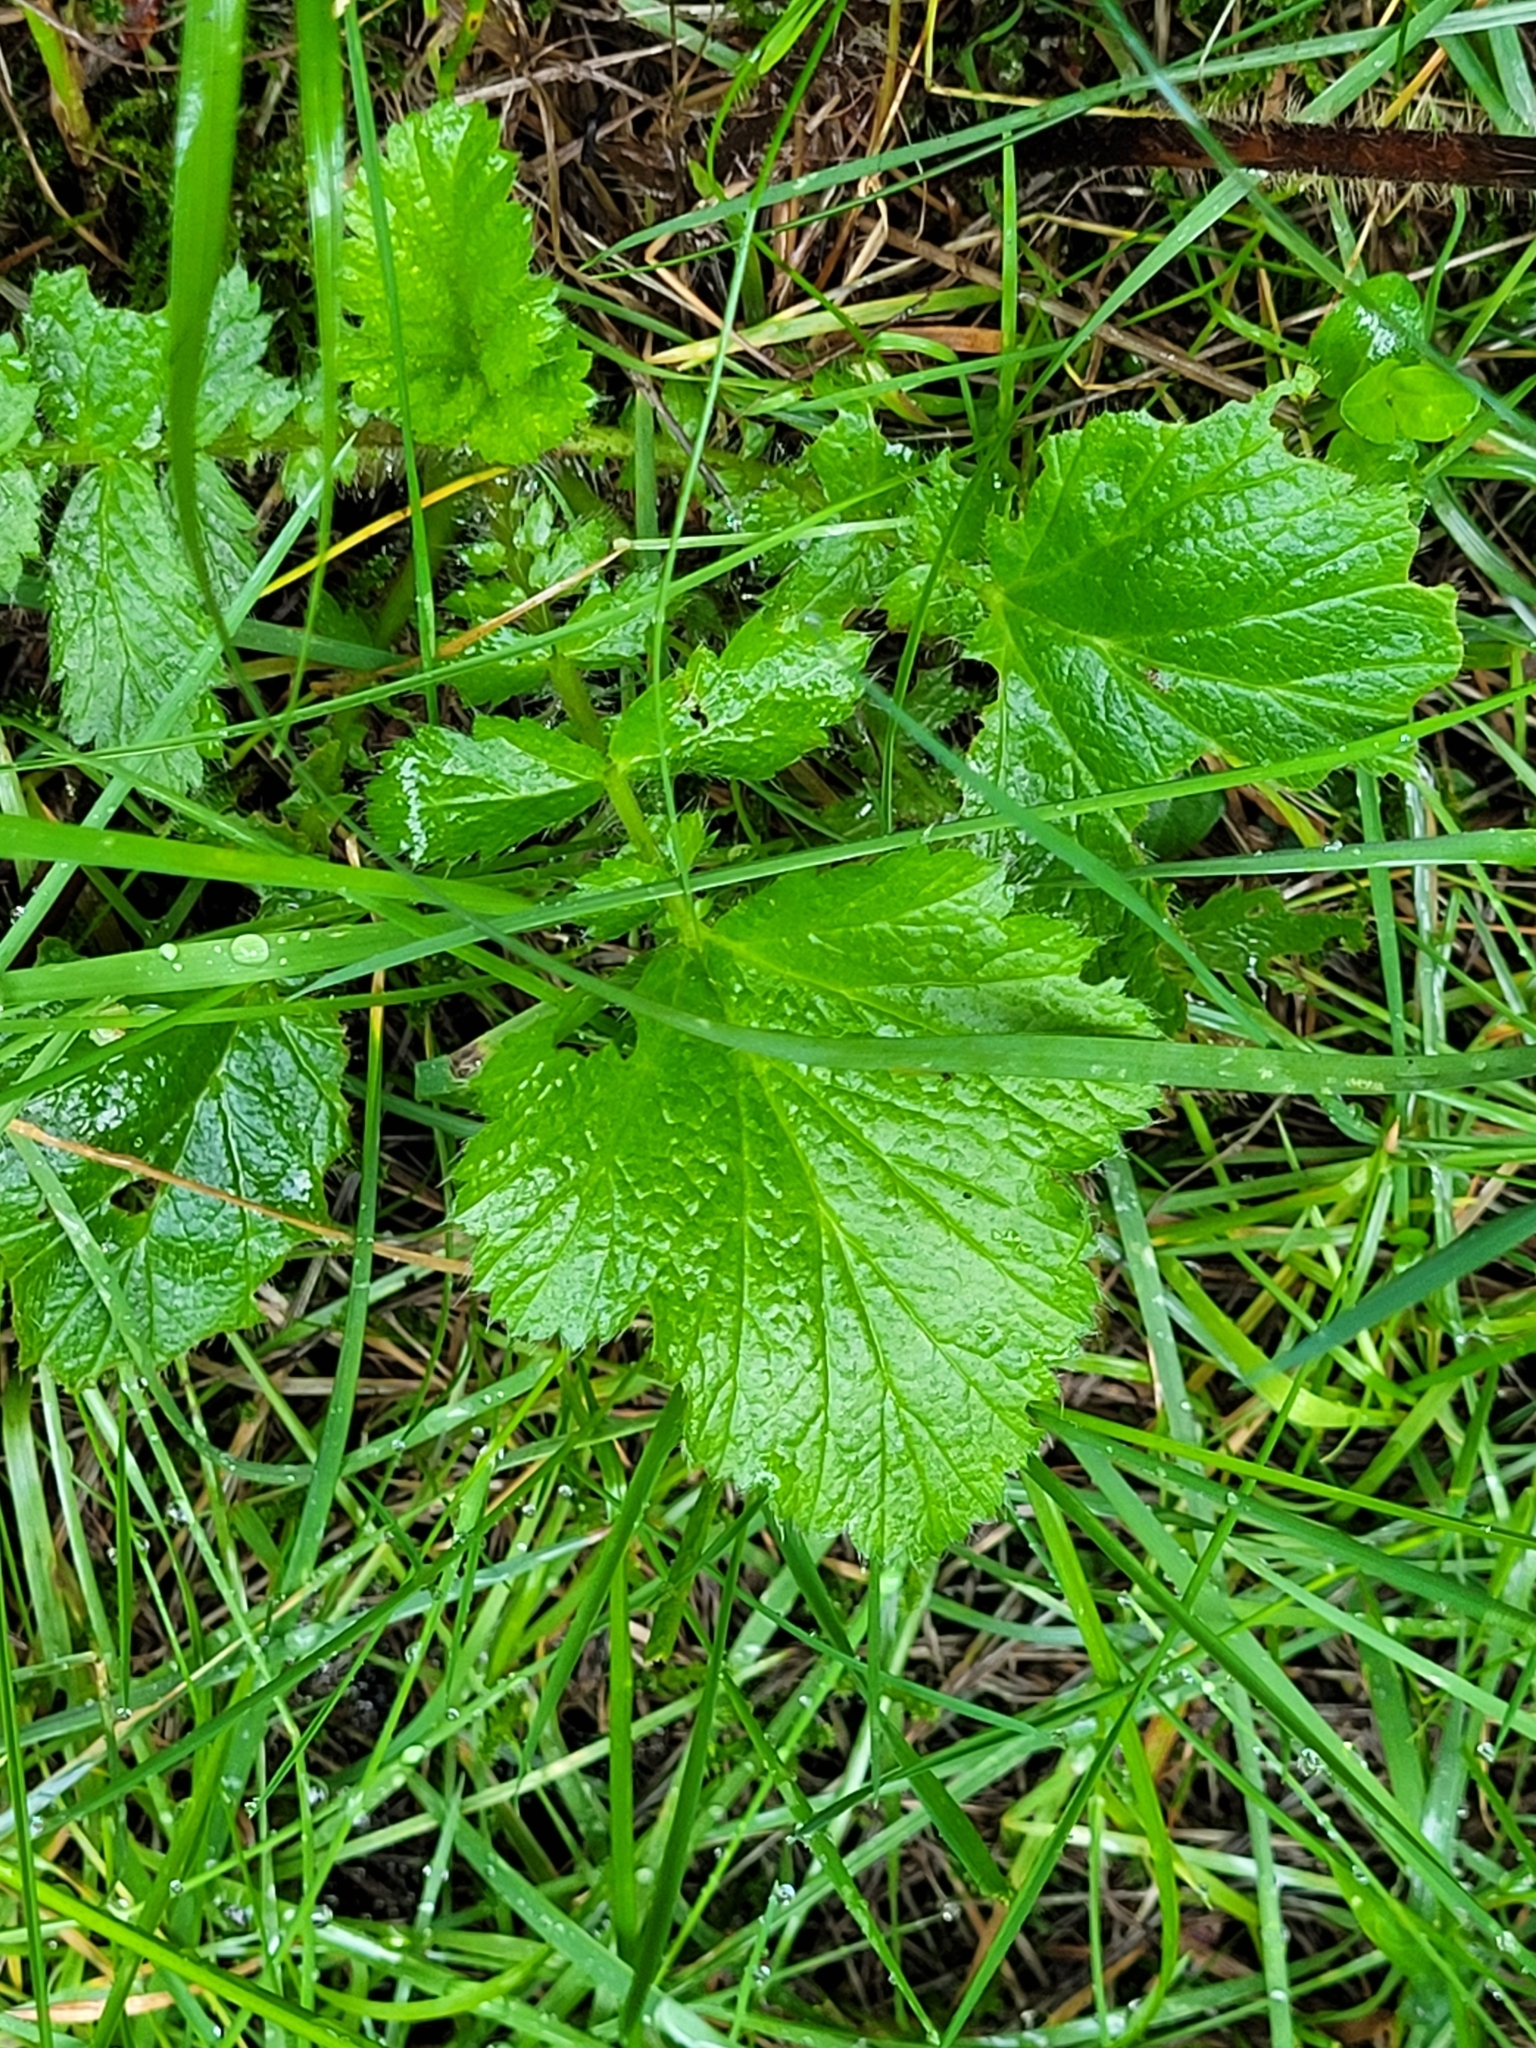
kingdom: Plantae
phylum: Tracheophyta
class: Magnoliopsida
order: Rosales
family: Rosaceae
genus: Geum
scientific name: Geum macrophyllum
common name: Large-leaved avens
